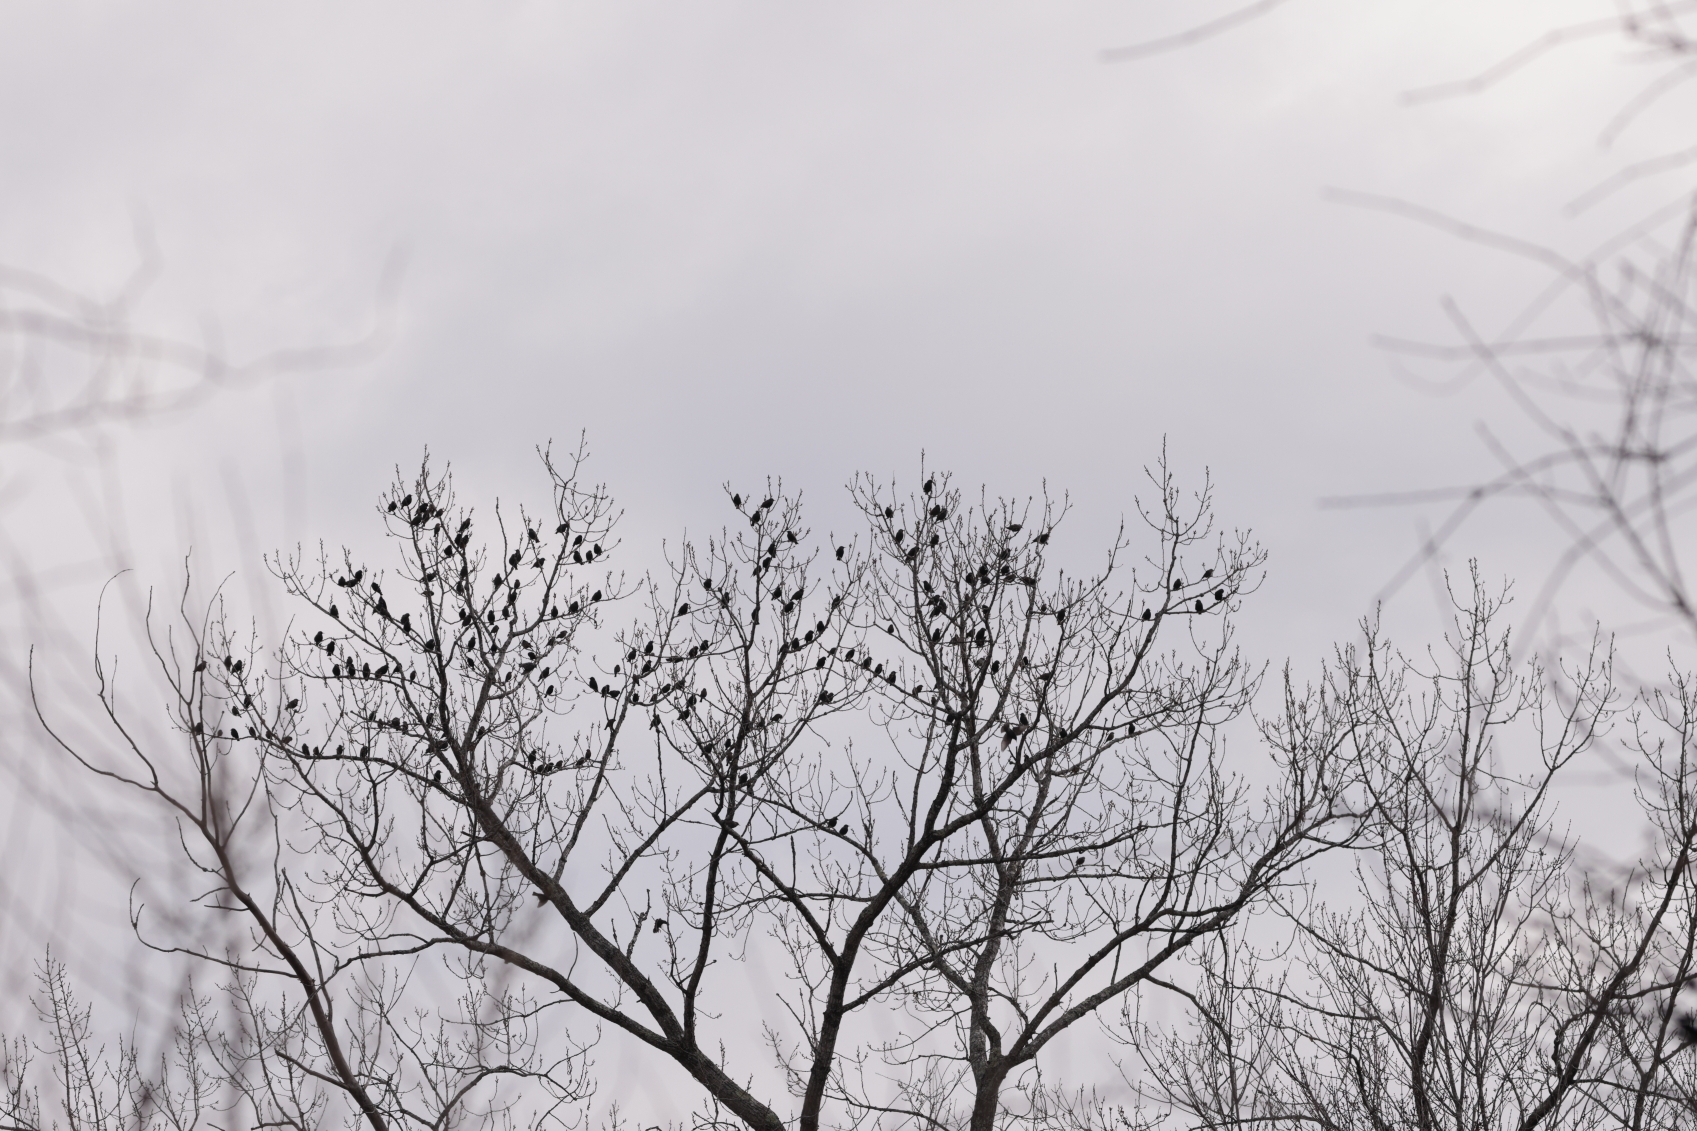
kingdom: Animalia
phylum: Chordata
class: Aves
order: Passeriformes
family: Sturnidae
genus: Sturnus
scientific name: Sturnus vulgaris
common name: Common starling
